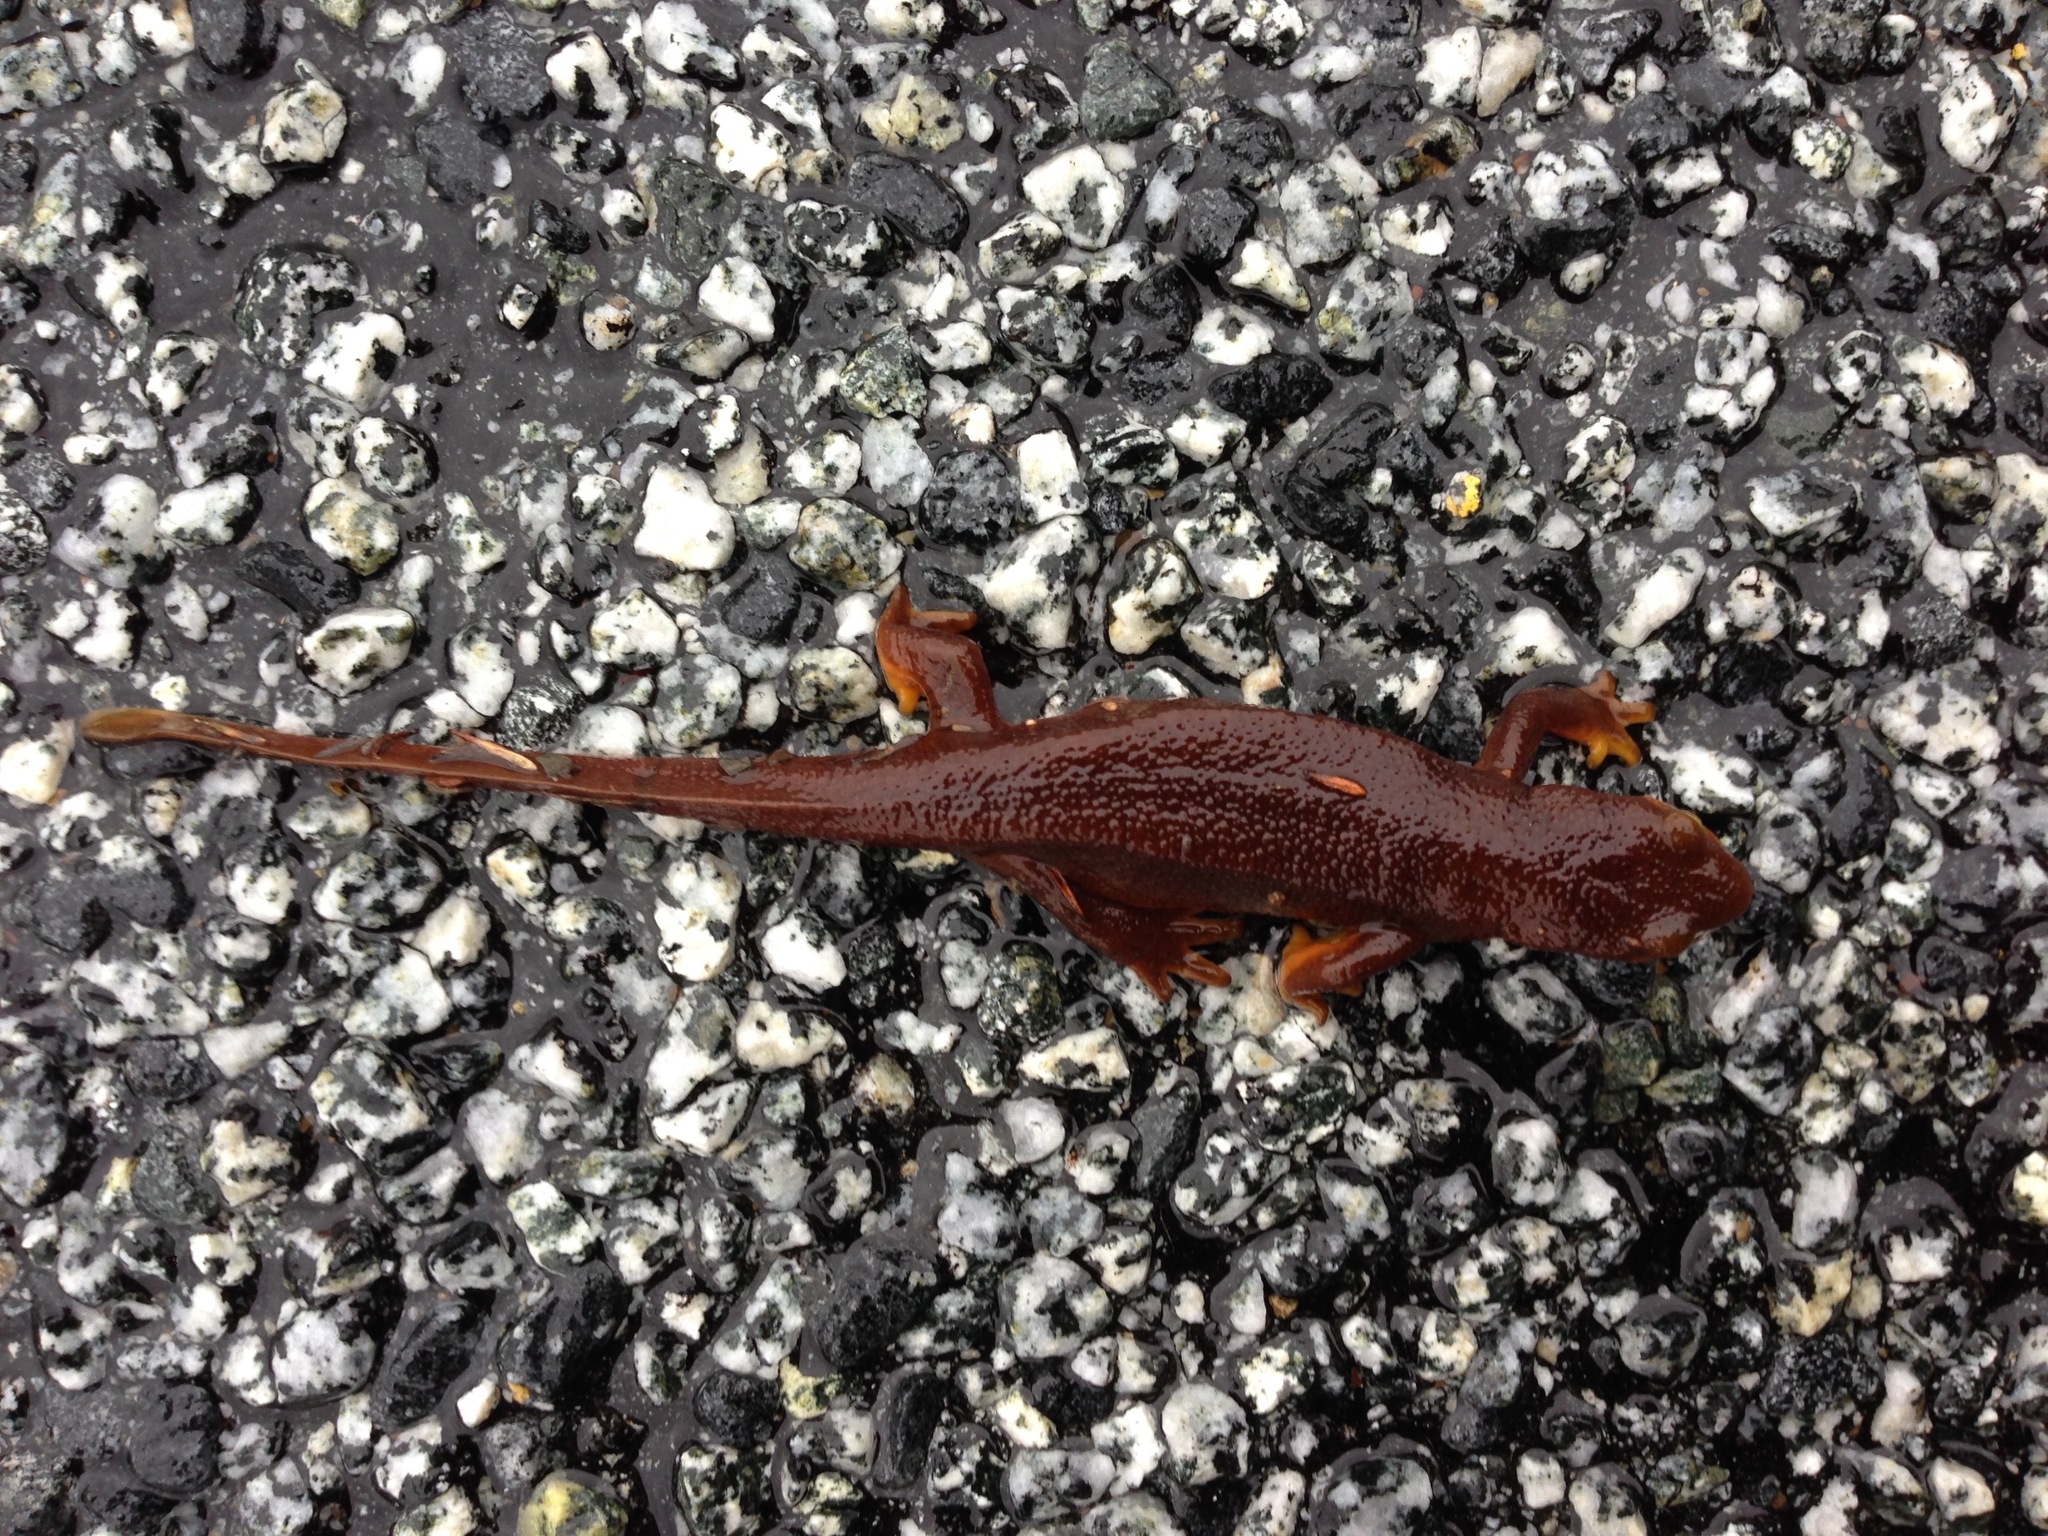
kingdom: Animalia
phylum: Chordata
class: Amphibia
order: Caudata
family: Salamandridae
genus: Taricha
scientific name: Taricha torosa
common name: California newt
